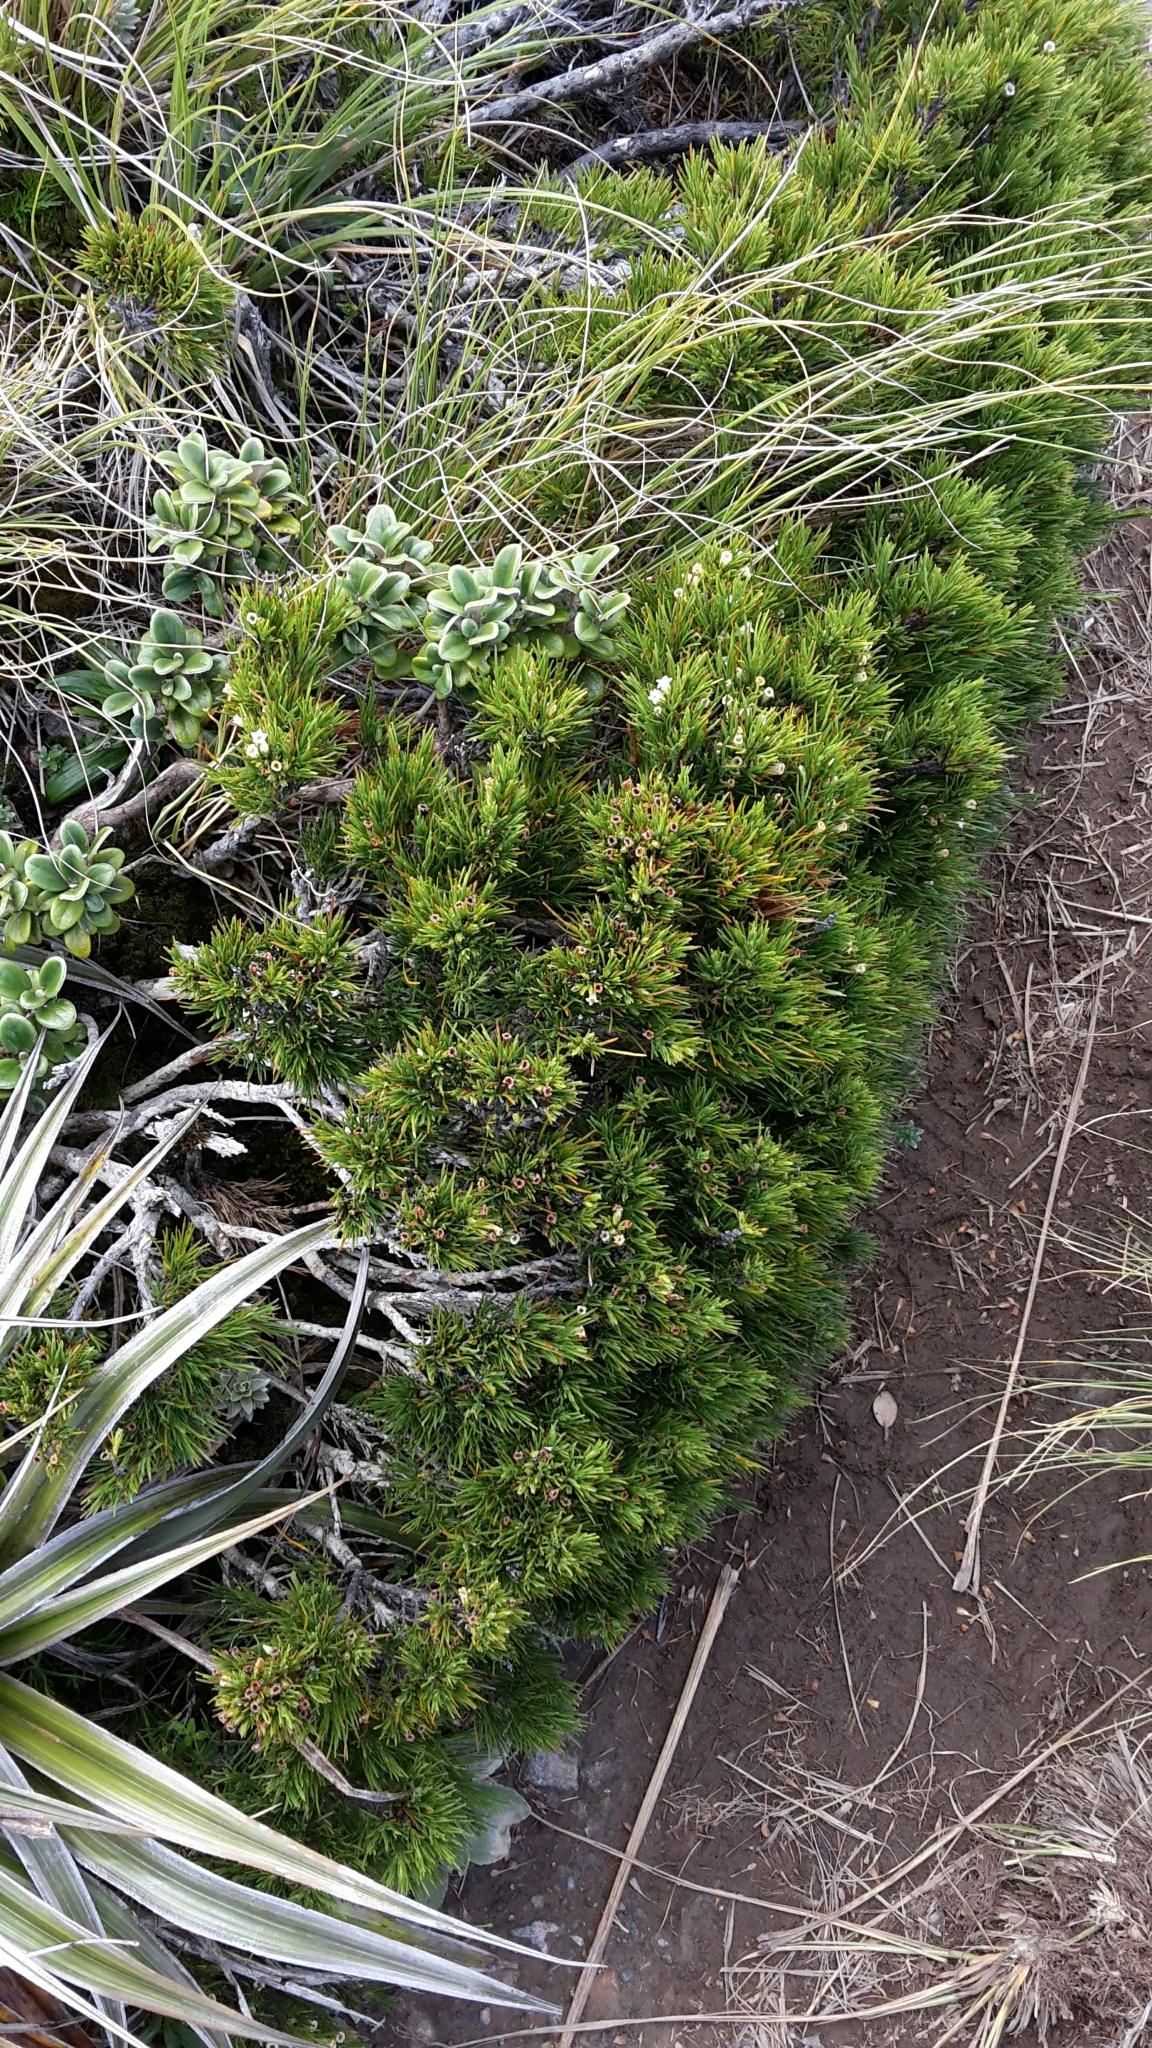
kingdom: Plantae
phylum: Tracheophyta
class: Magnoliopsida
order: Ericales
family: Ericaceae
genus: Dracophyllum
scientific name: Dracophyllum rosmarinifolium
